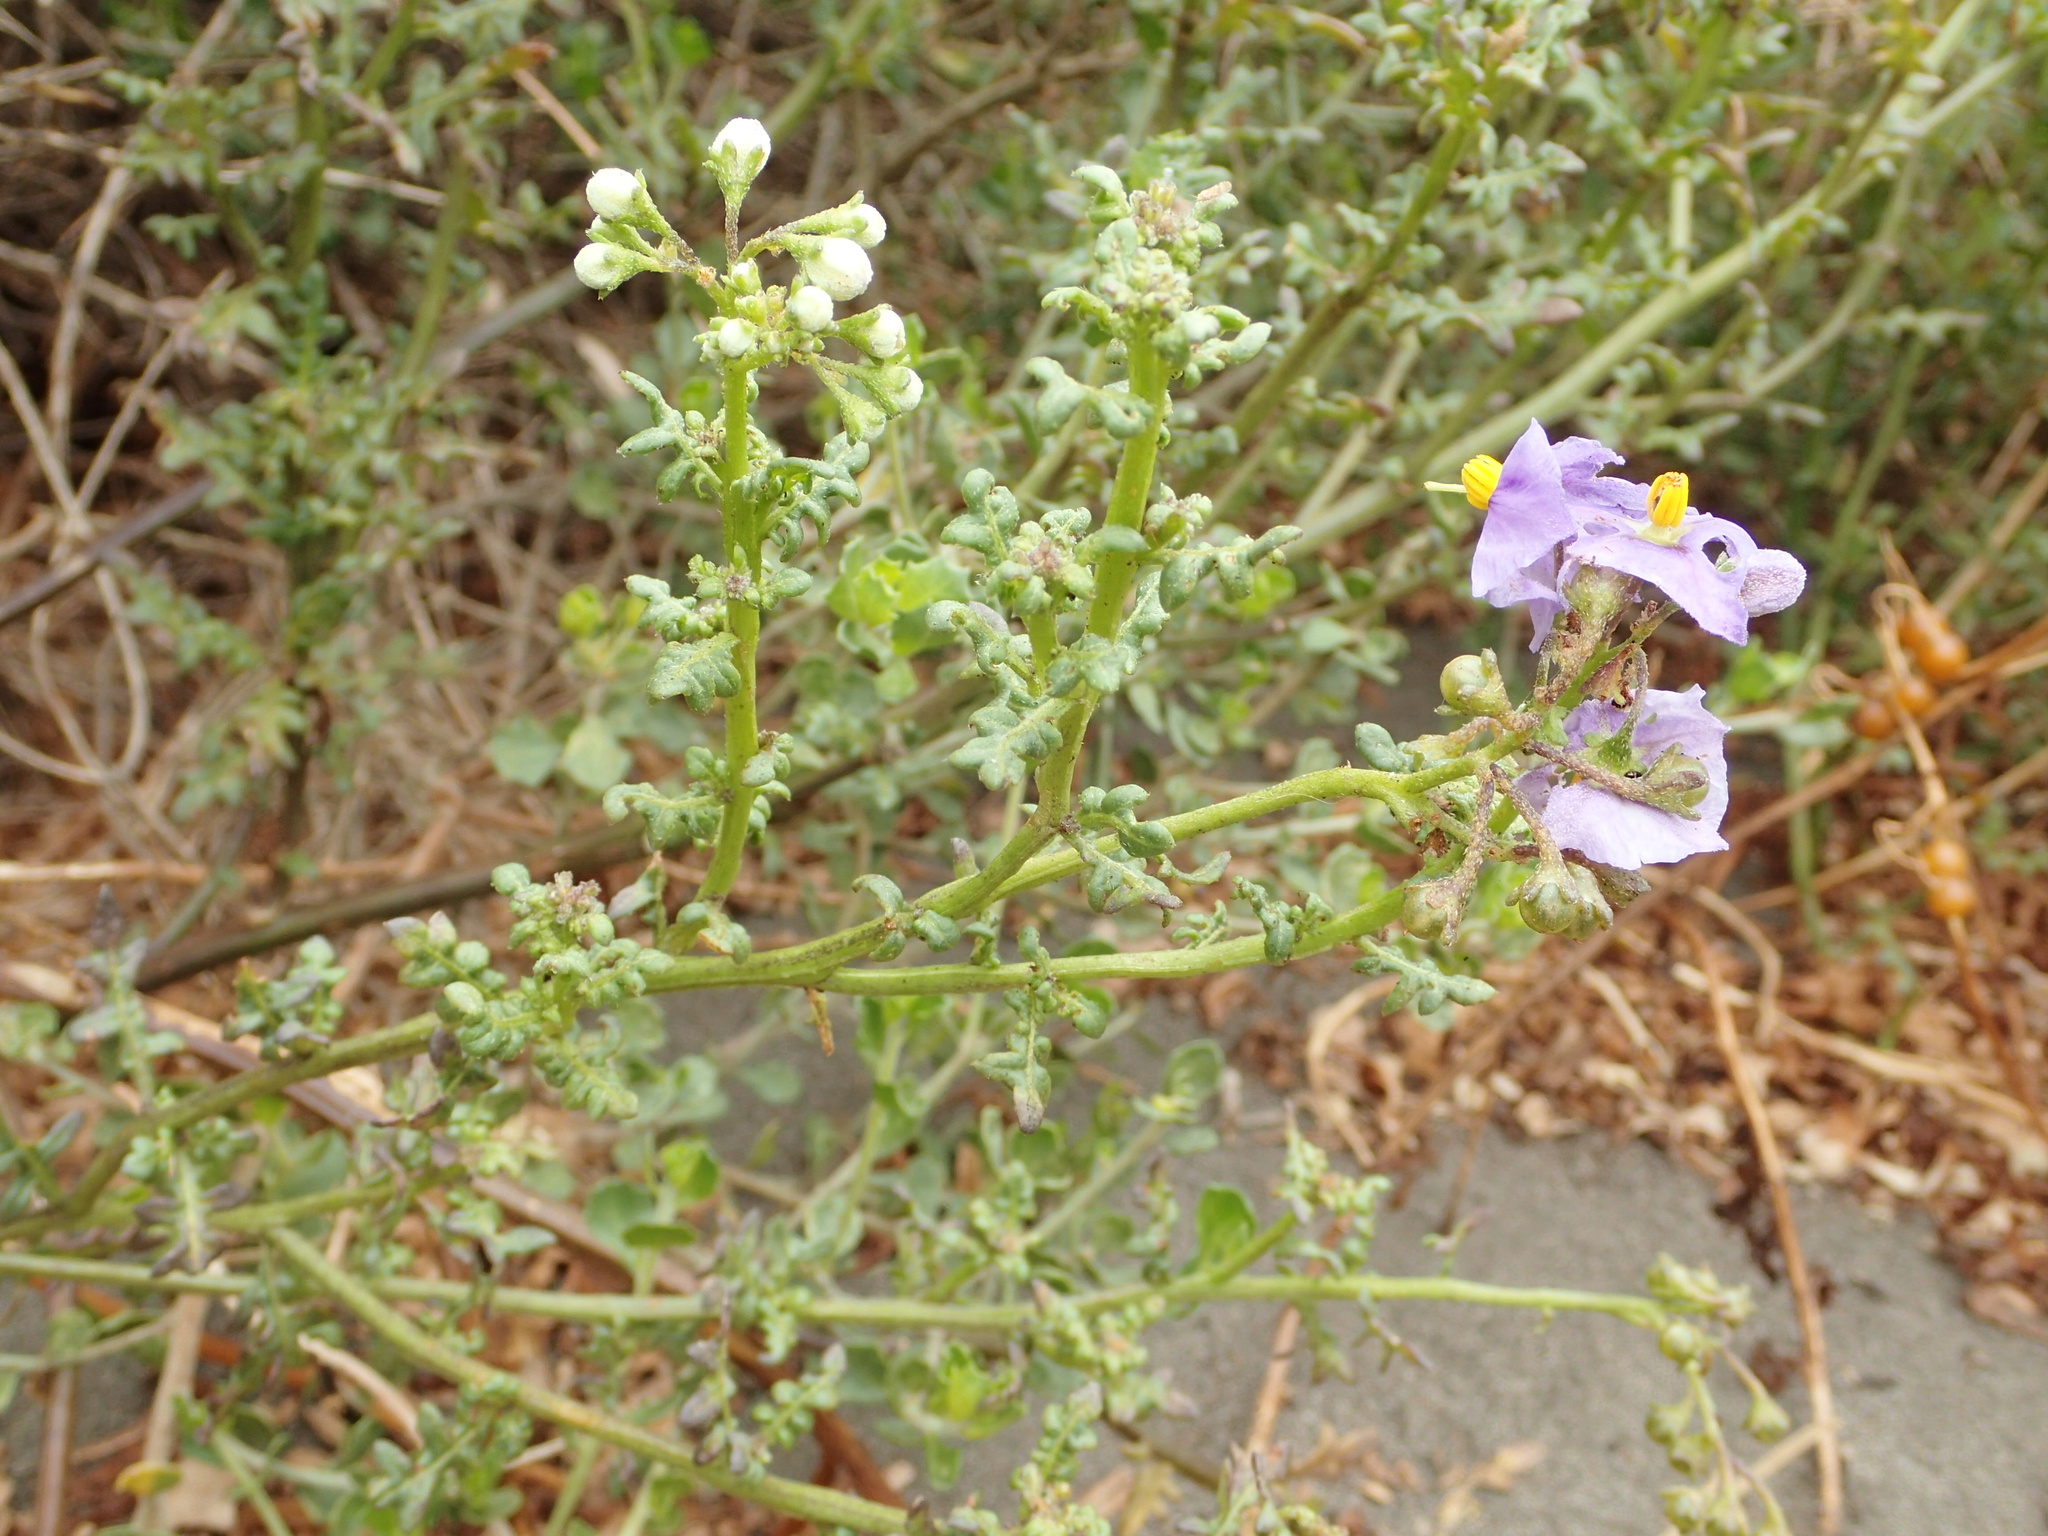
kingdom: Plantae
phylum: Tracheophyta
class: Magnoliopsida
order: Solanales
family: Solanaceae
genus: Solanum
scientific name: Solanum pinnatum
